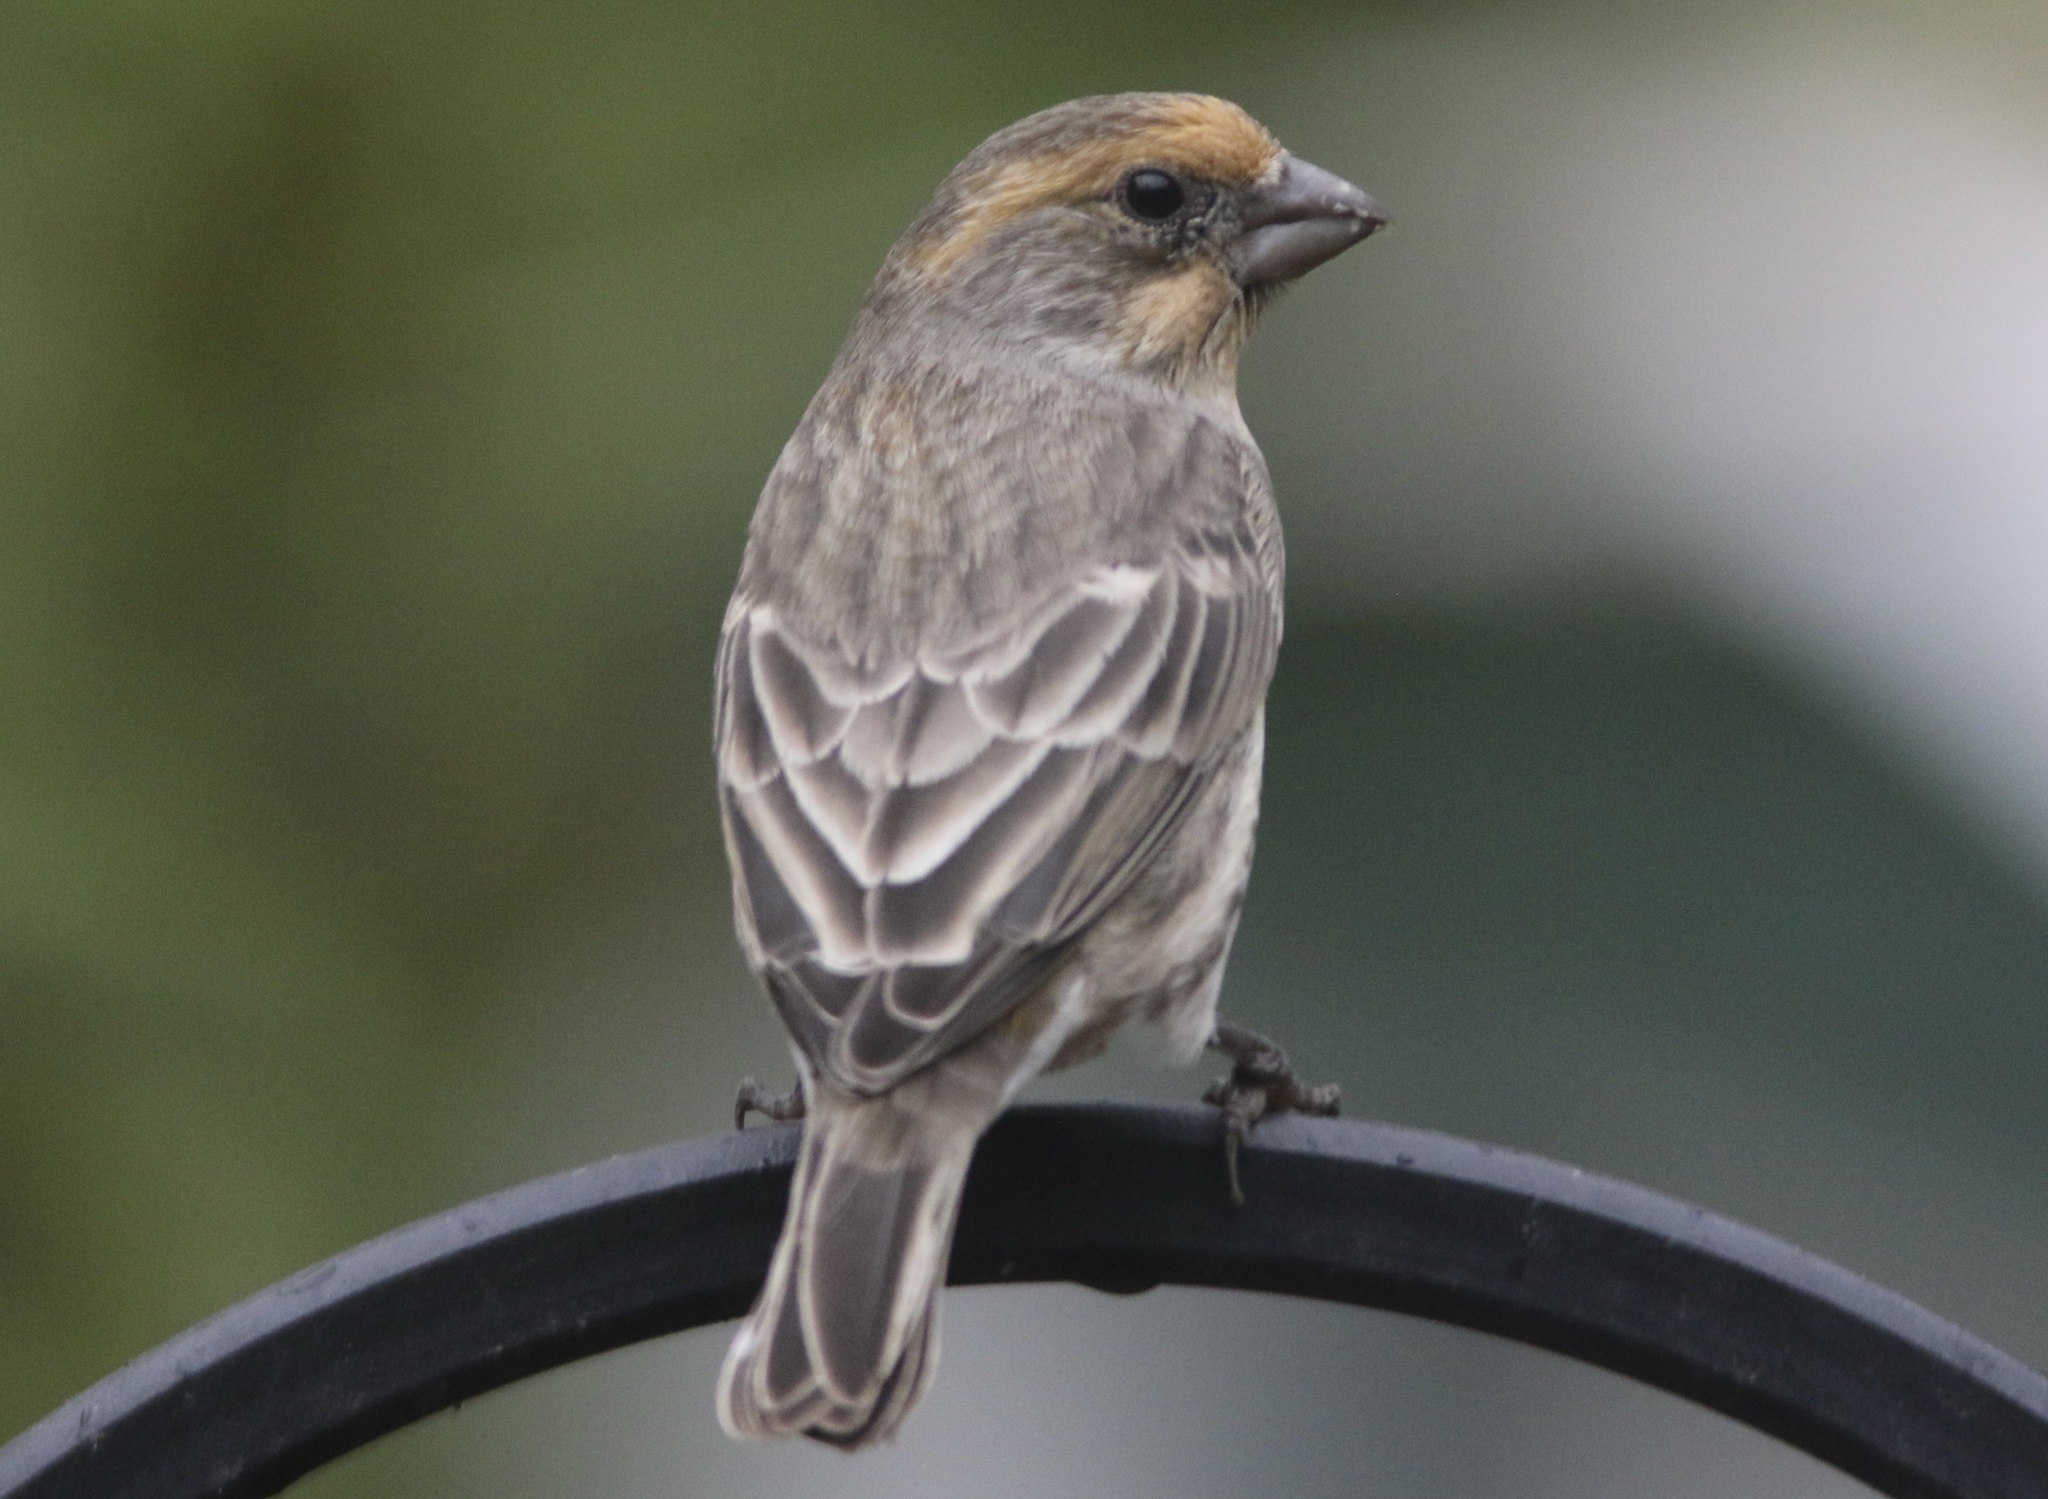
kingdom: Animalia
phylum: Chordata
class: Aves
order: Passeriformes
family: Fringillidae
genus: Haemorhous
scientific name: Haemorhous mexicanus
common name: House finch
